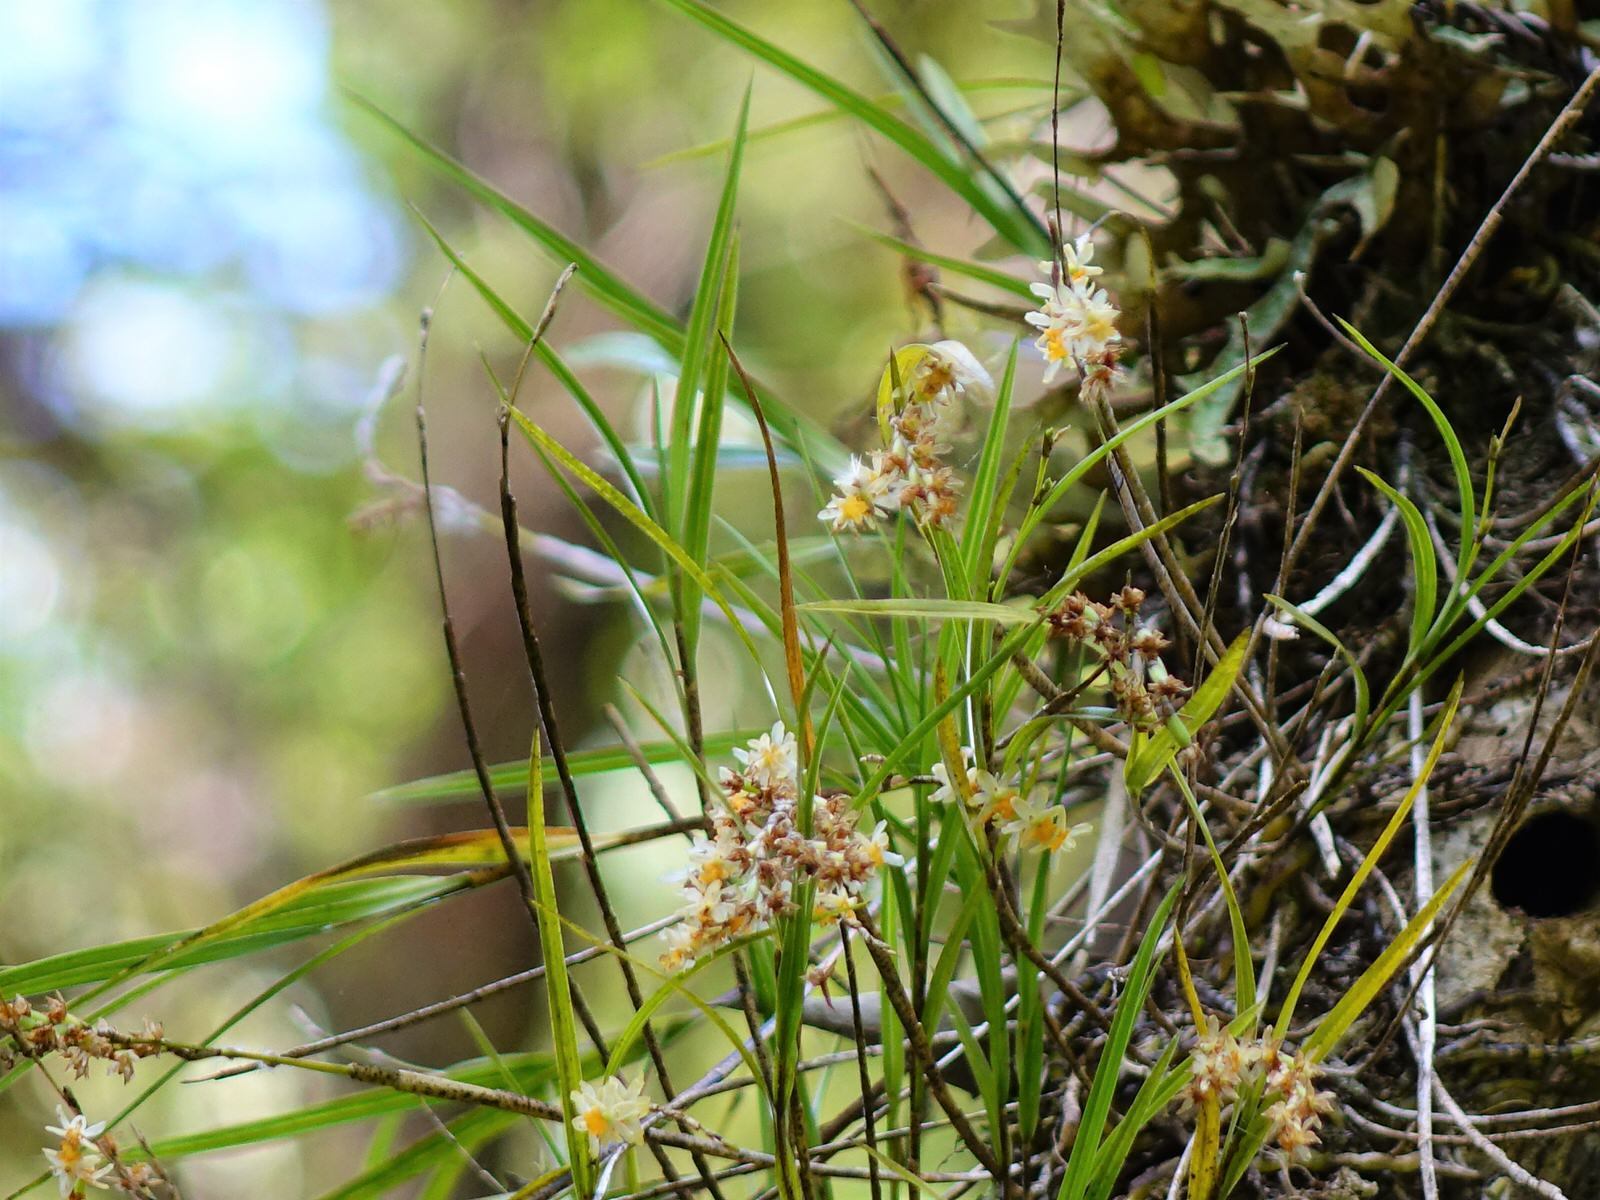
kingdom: Plantae
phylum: Tracheophyta
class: Liliopsida
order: Asparagales
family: Orchidaceae
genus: Earina
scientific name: Earina aestivalis
